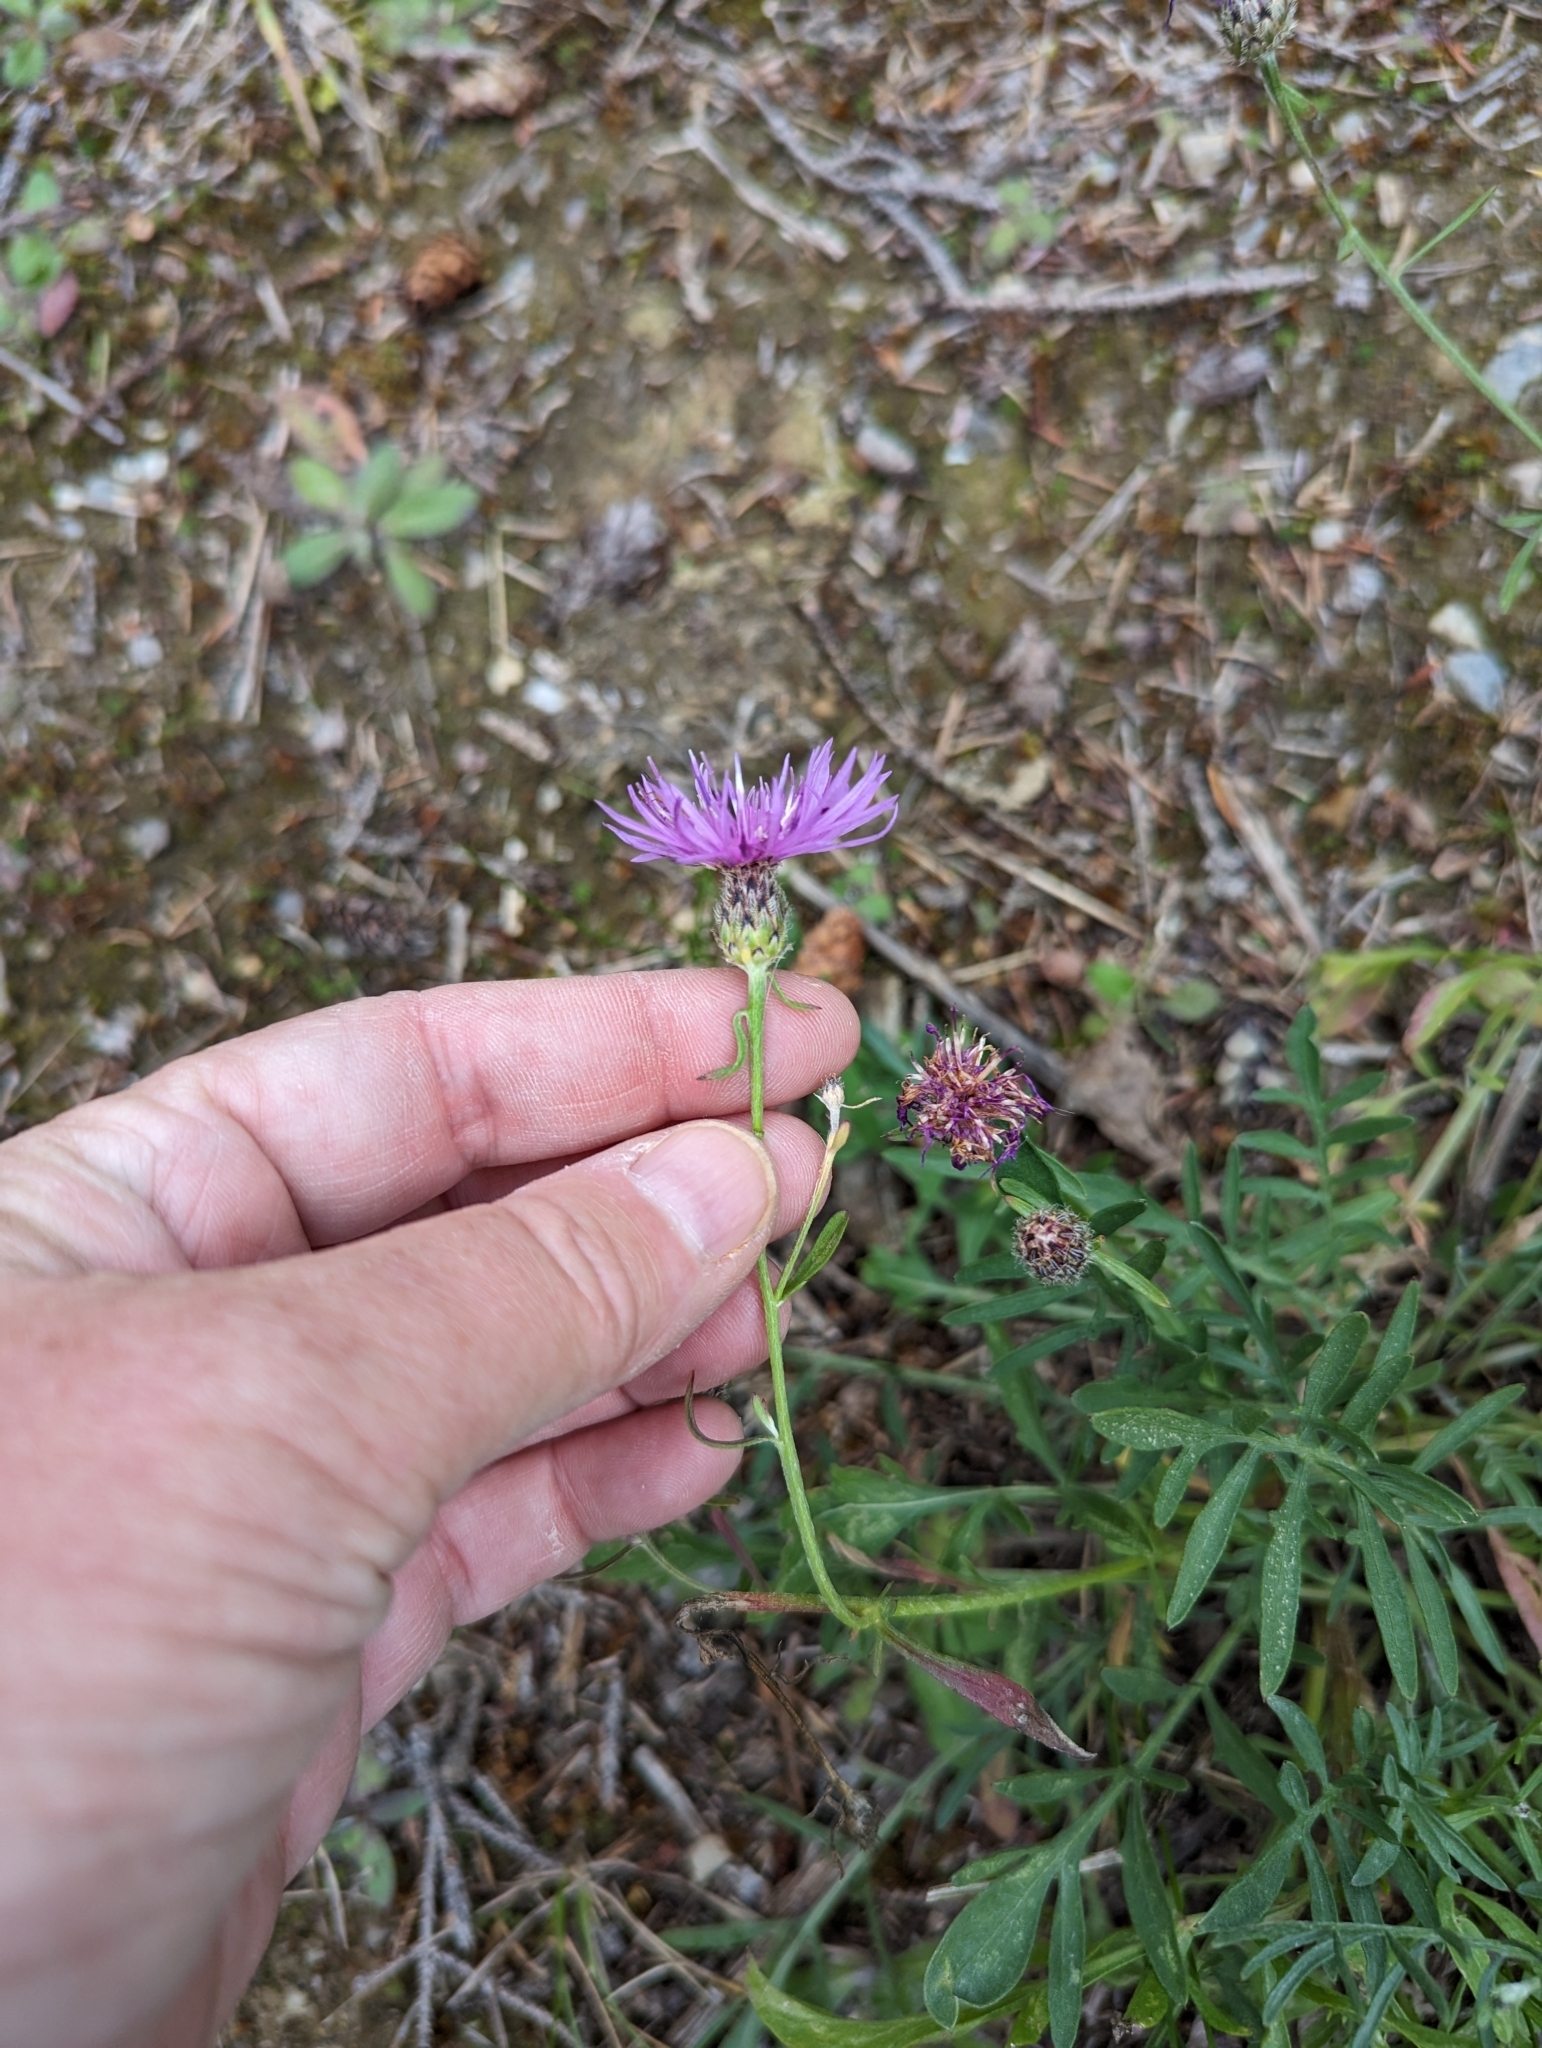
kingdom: Plantae
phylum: Tracheophyta
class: Magnoliopsida
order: Asterales
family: Asteraceae
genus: Centaurea
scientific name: Centaurea stoebe
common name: Spotted knapweed
